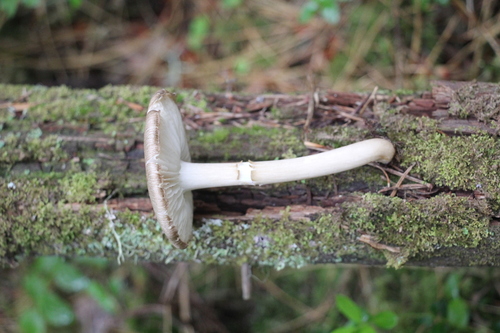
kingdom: Fungi
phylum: Basidiomycota
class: Agaricomycetes
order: Agaricales
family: Tricholomataceae
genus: Megacollybia
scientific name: Megacollybia platyphylla
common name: Whitelaced shank
